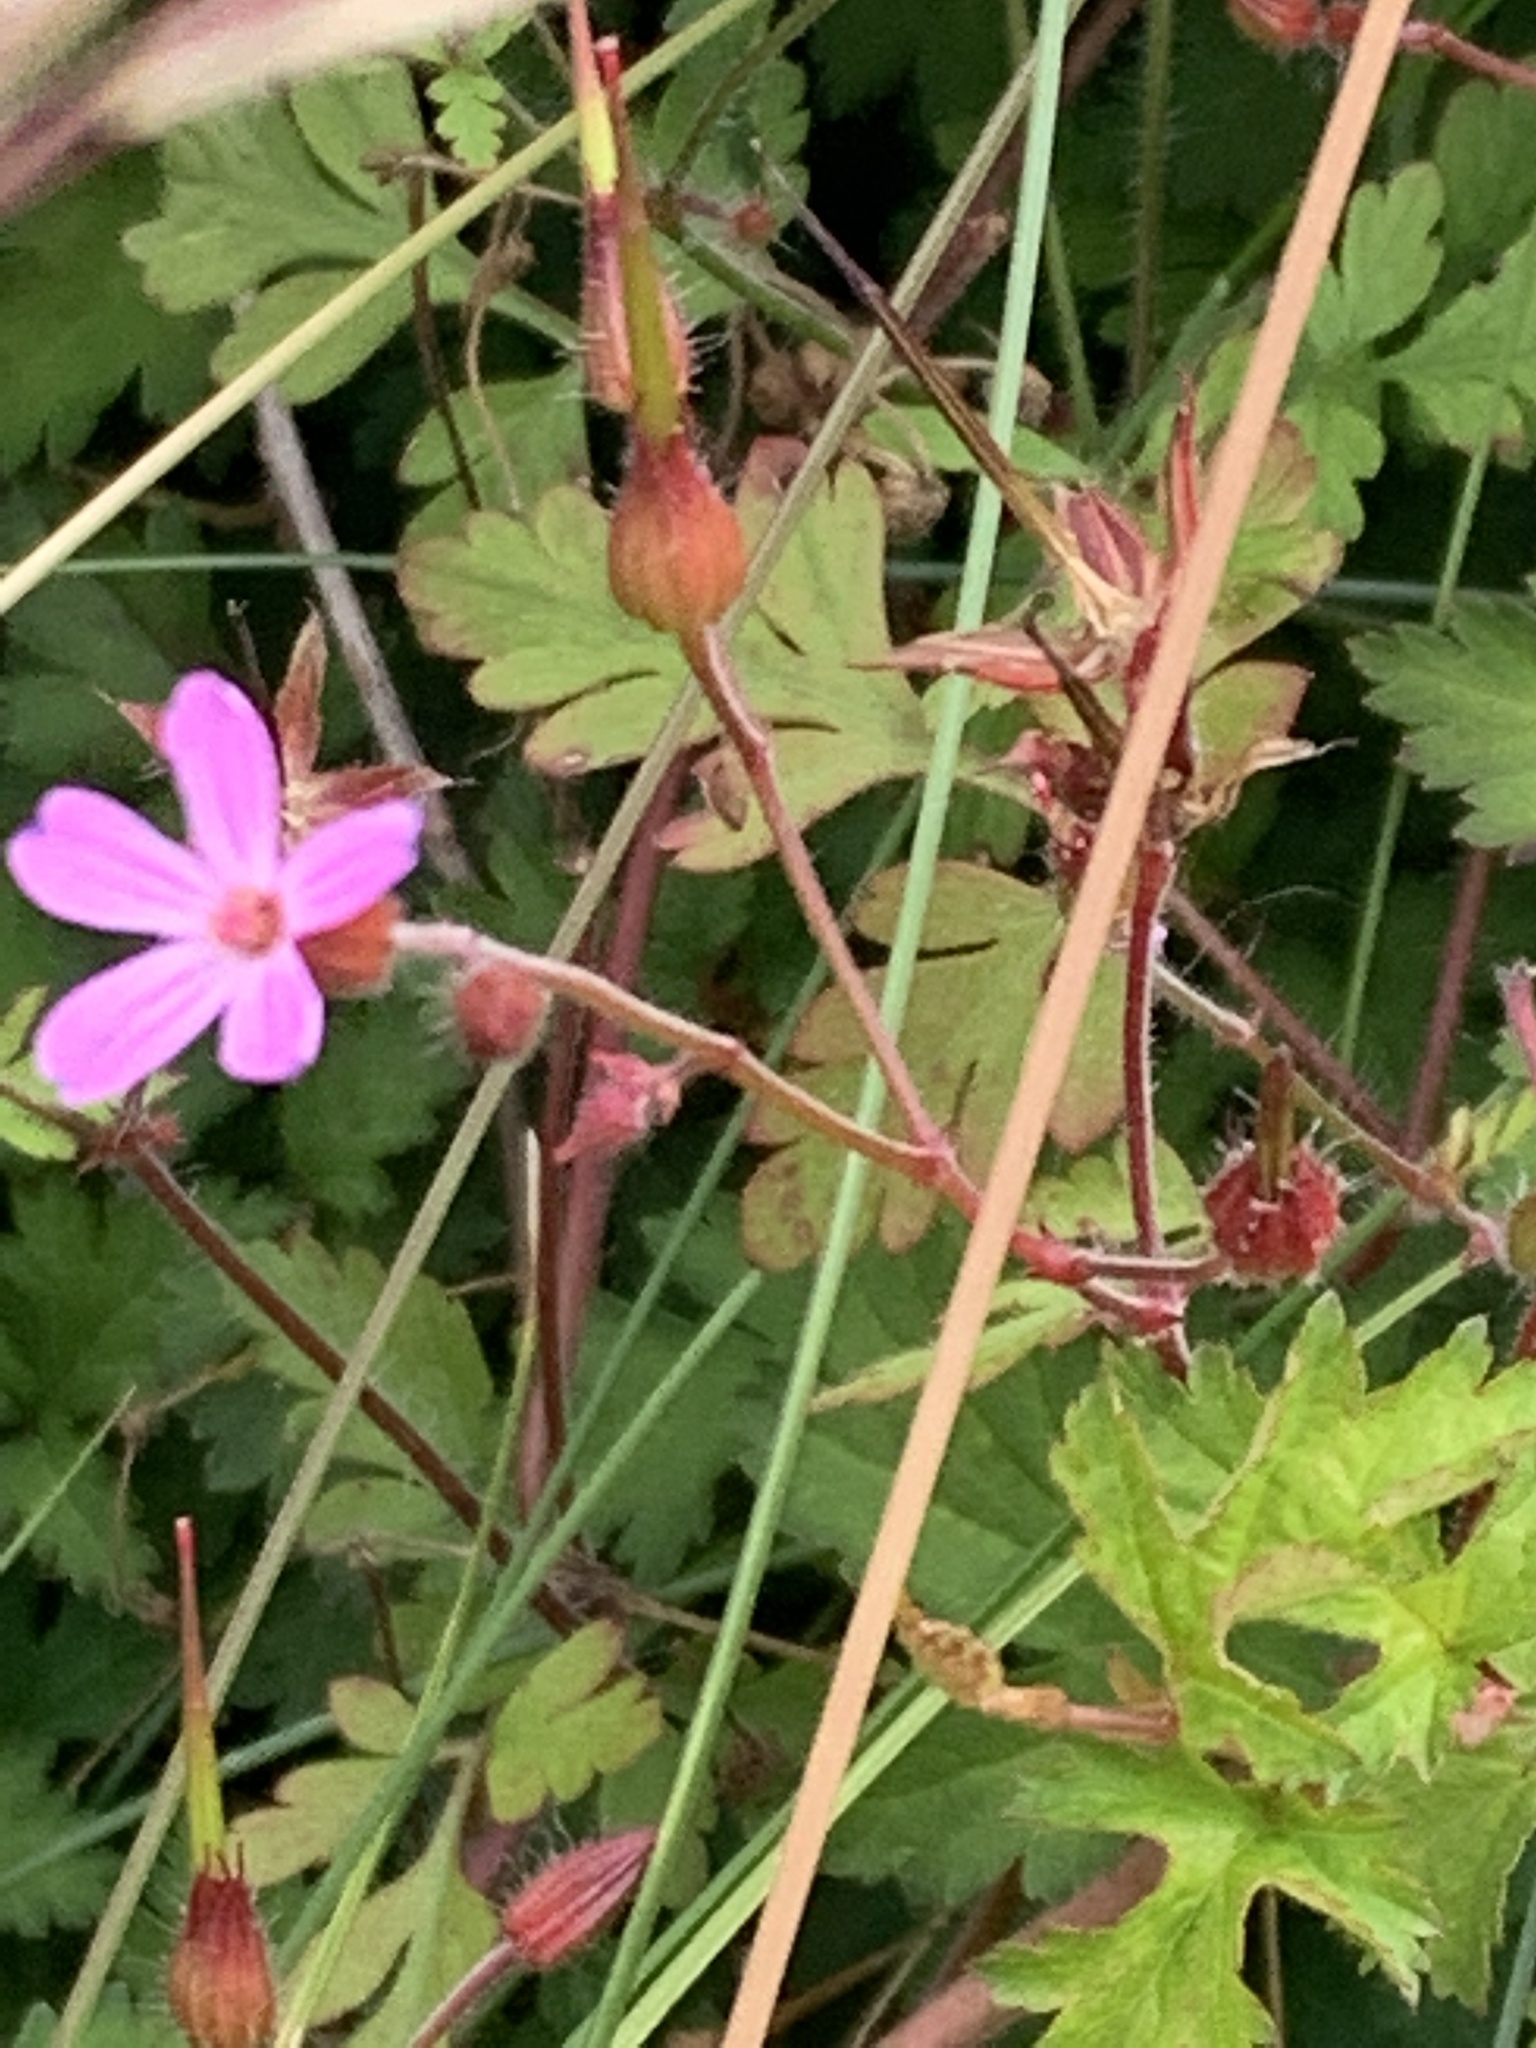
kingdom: Plantae
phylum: Tracheophyta
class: Magnoliopsida
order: Geraniales
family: Geraniaceae
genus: Geranium
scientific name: Geranium robertianum
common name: Herb-robert
